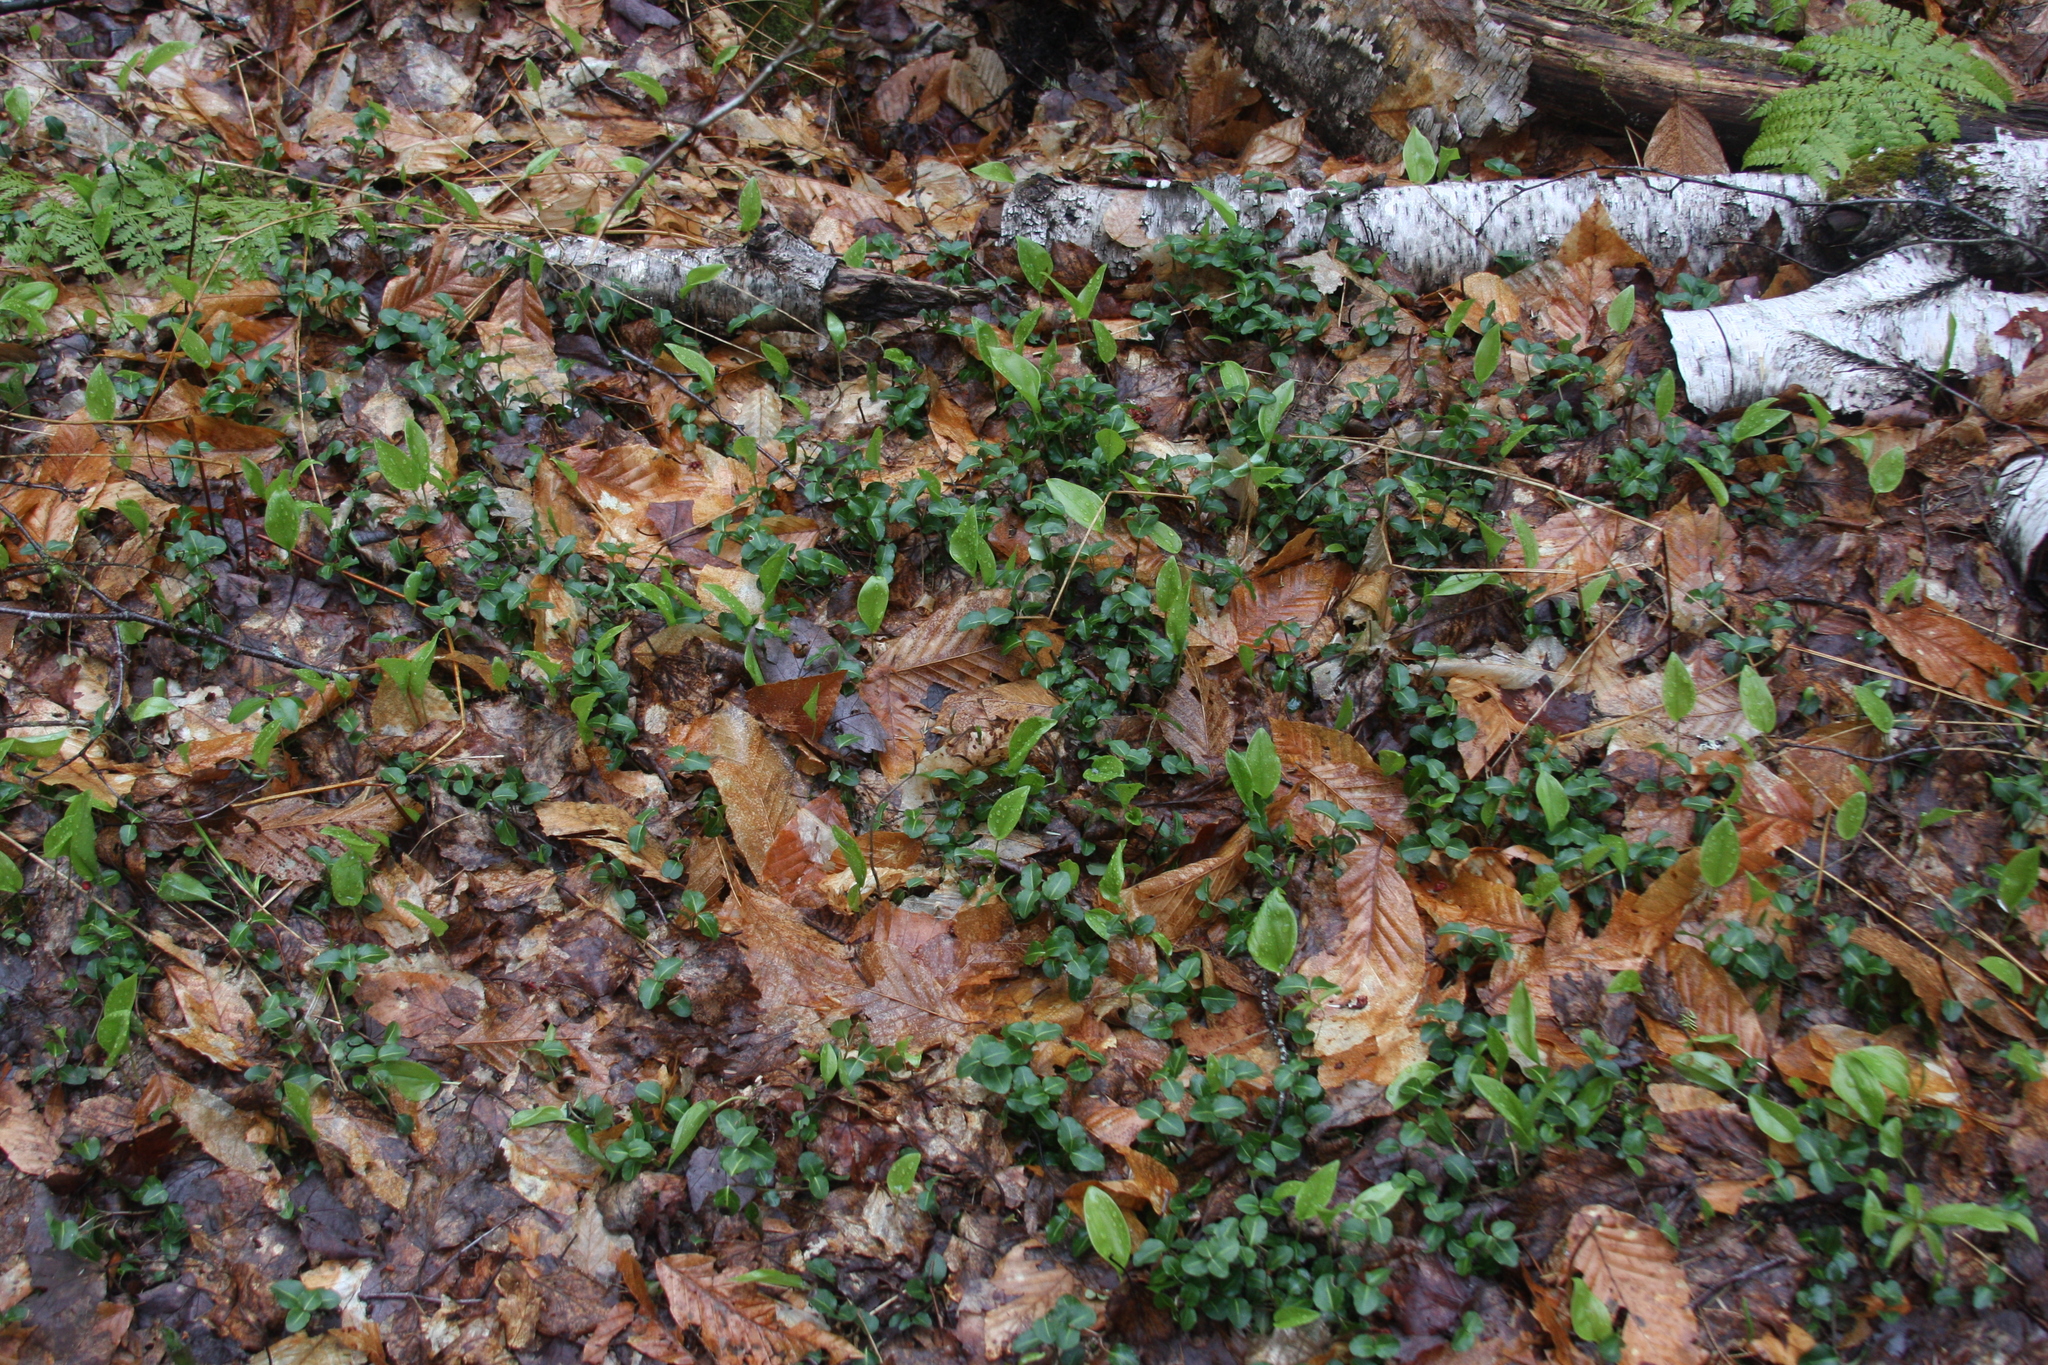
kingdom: Plantae
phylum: Tracheophyta
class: Liliopsida
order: Asparagales
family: Asparagaceae
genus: Maianthemum
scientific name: Maianthemum canadense
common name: False lily-of-the-valley
